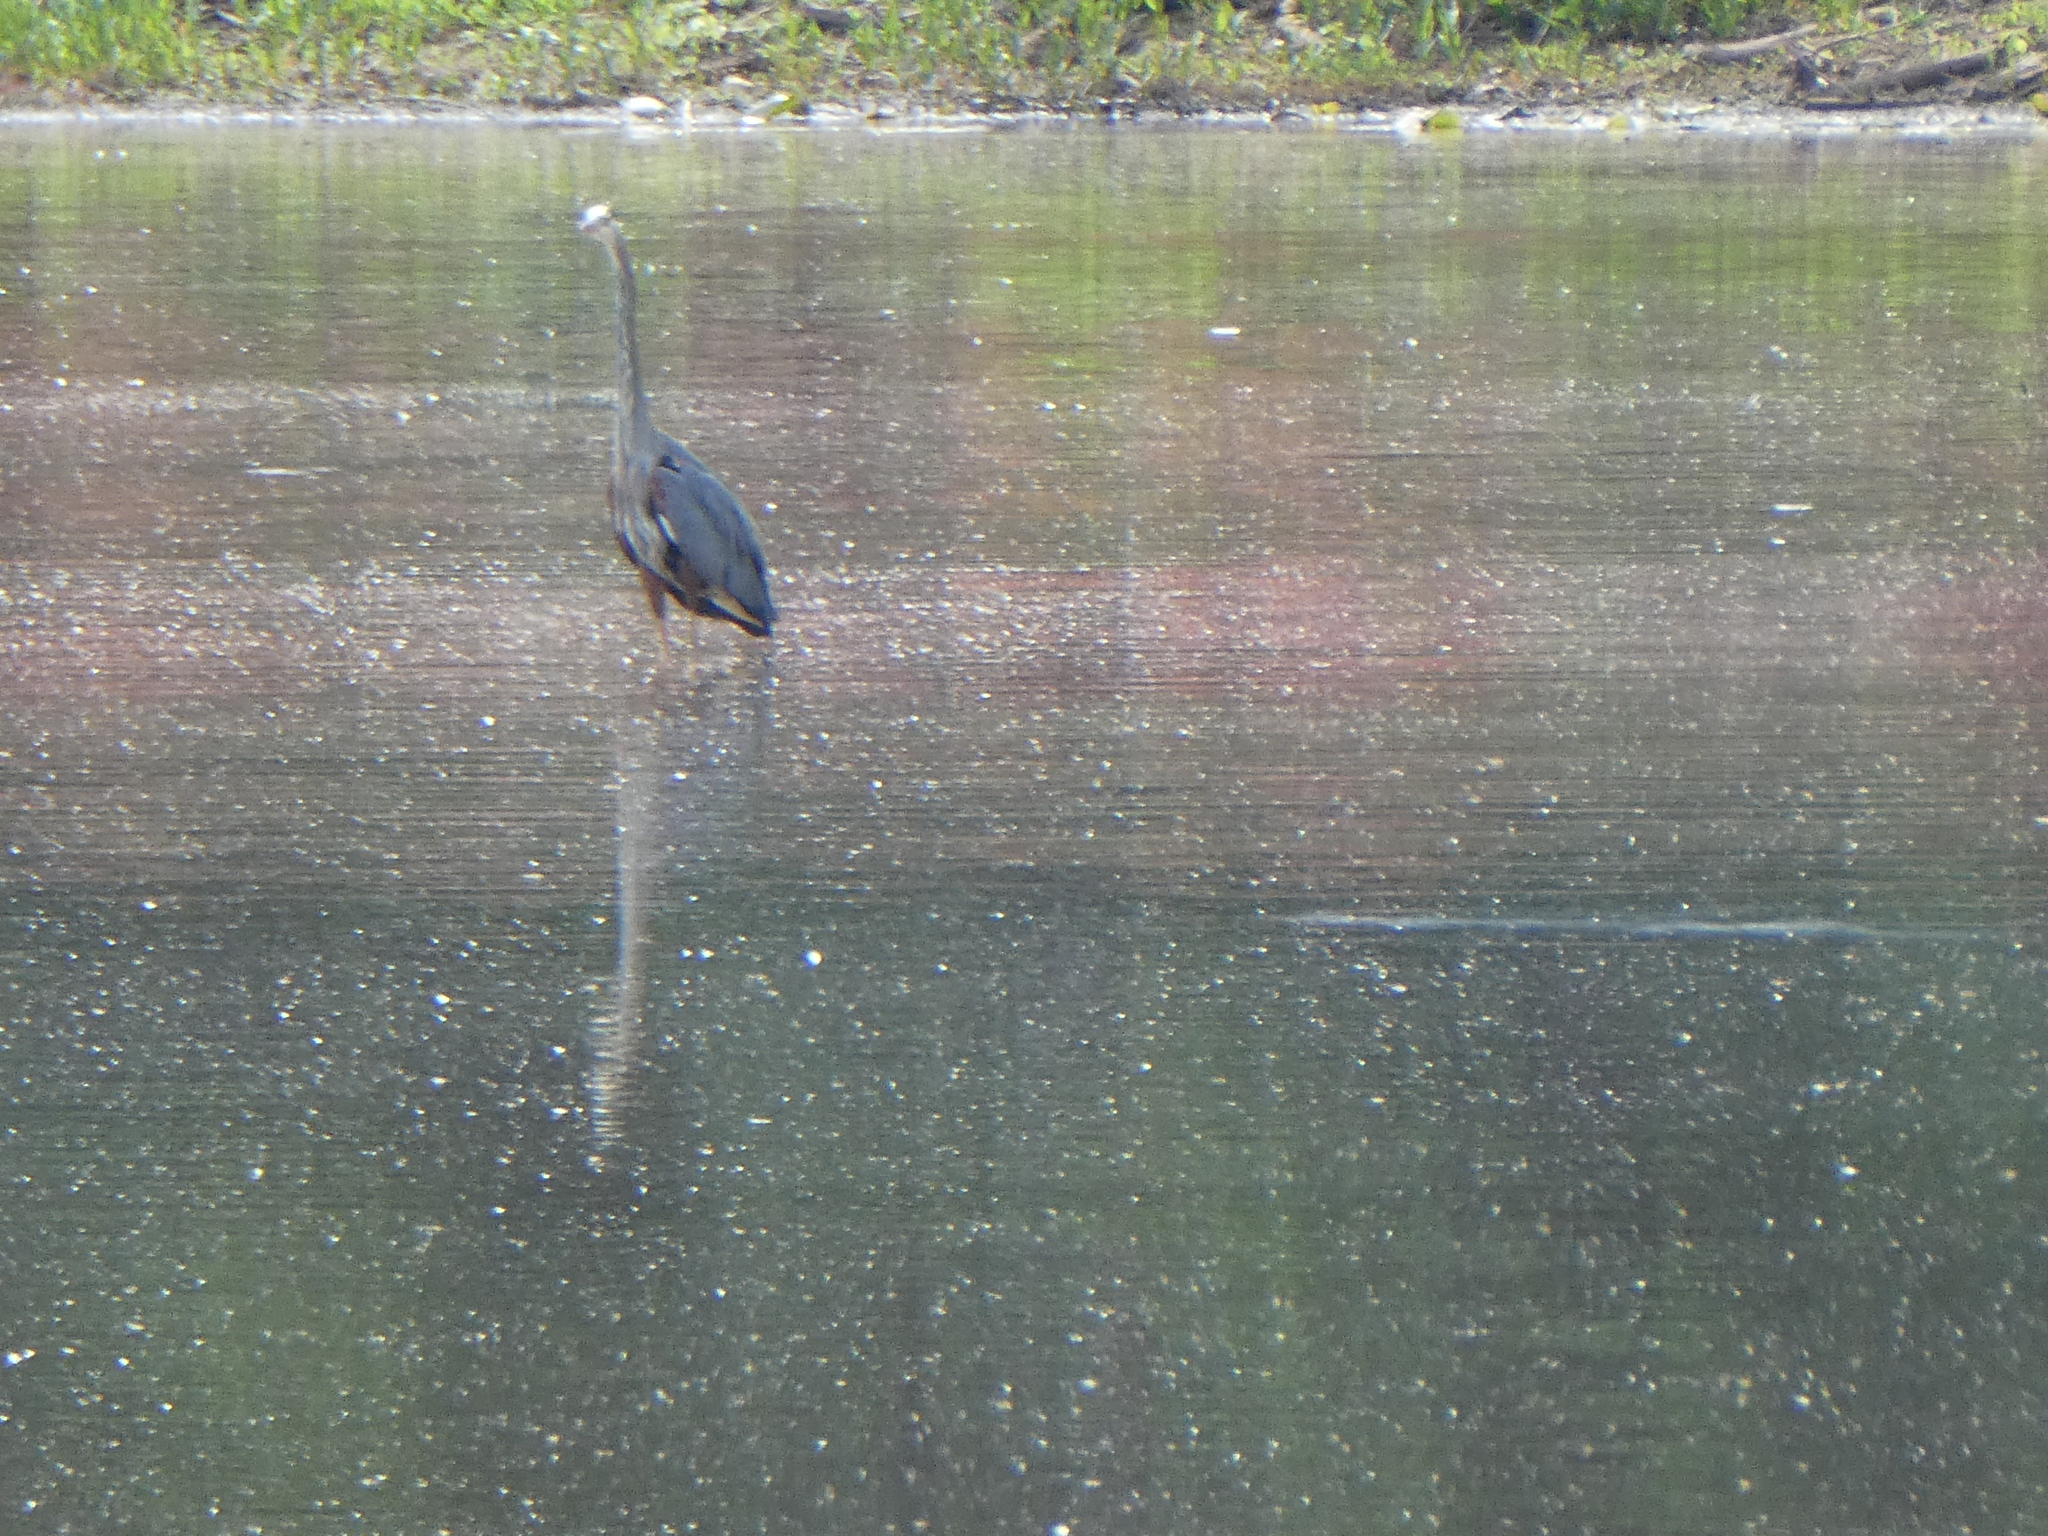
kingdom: Animalia
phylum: Chordata
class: Aves
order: Pelecaniformes
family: Ardeidae
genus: Ardea
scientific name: Ardea herodias
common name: Great blue heron
